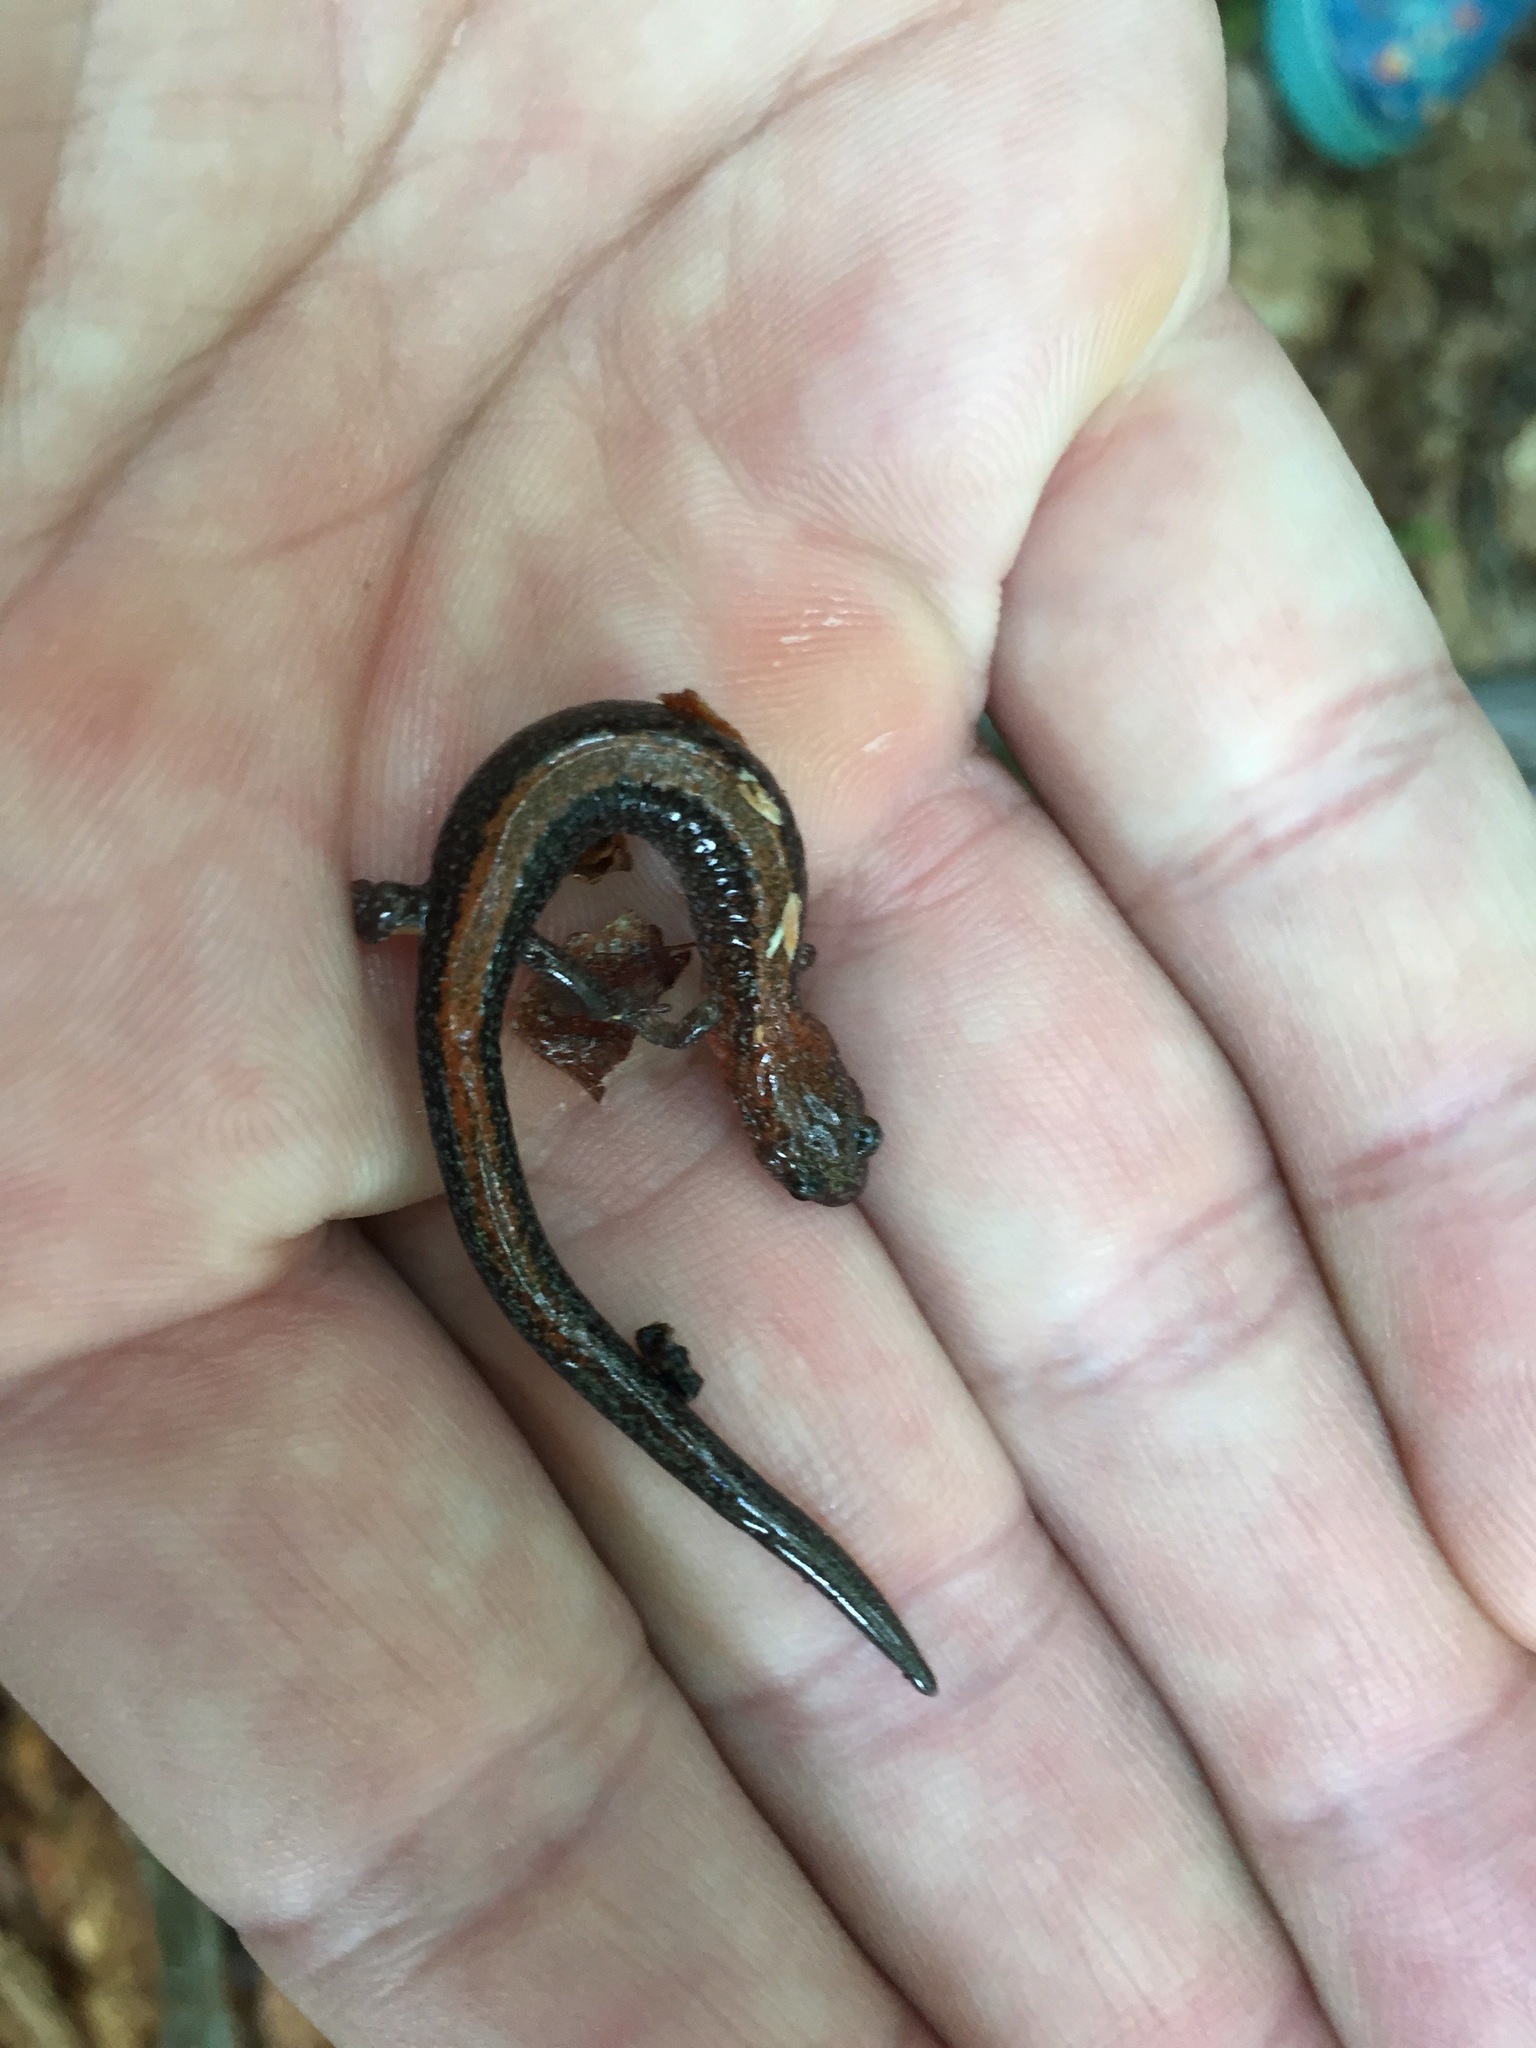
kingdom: Animalia
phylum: Chordata
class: Amphibia
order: Caudata
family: Plethodontidae
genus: Plethodon
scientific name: Plethodon cinereus
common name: Redback salamander
